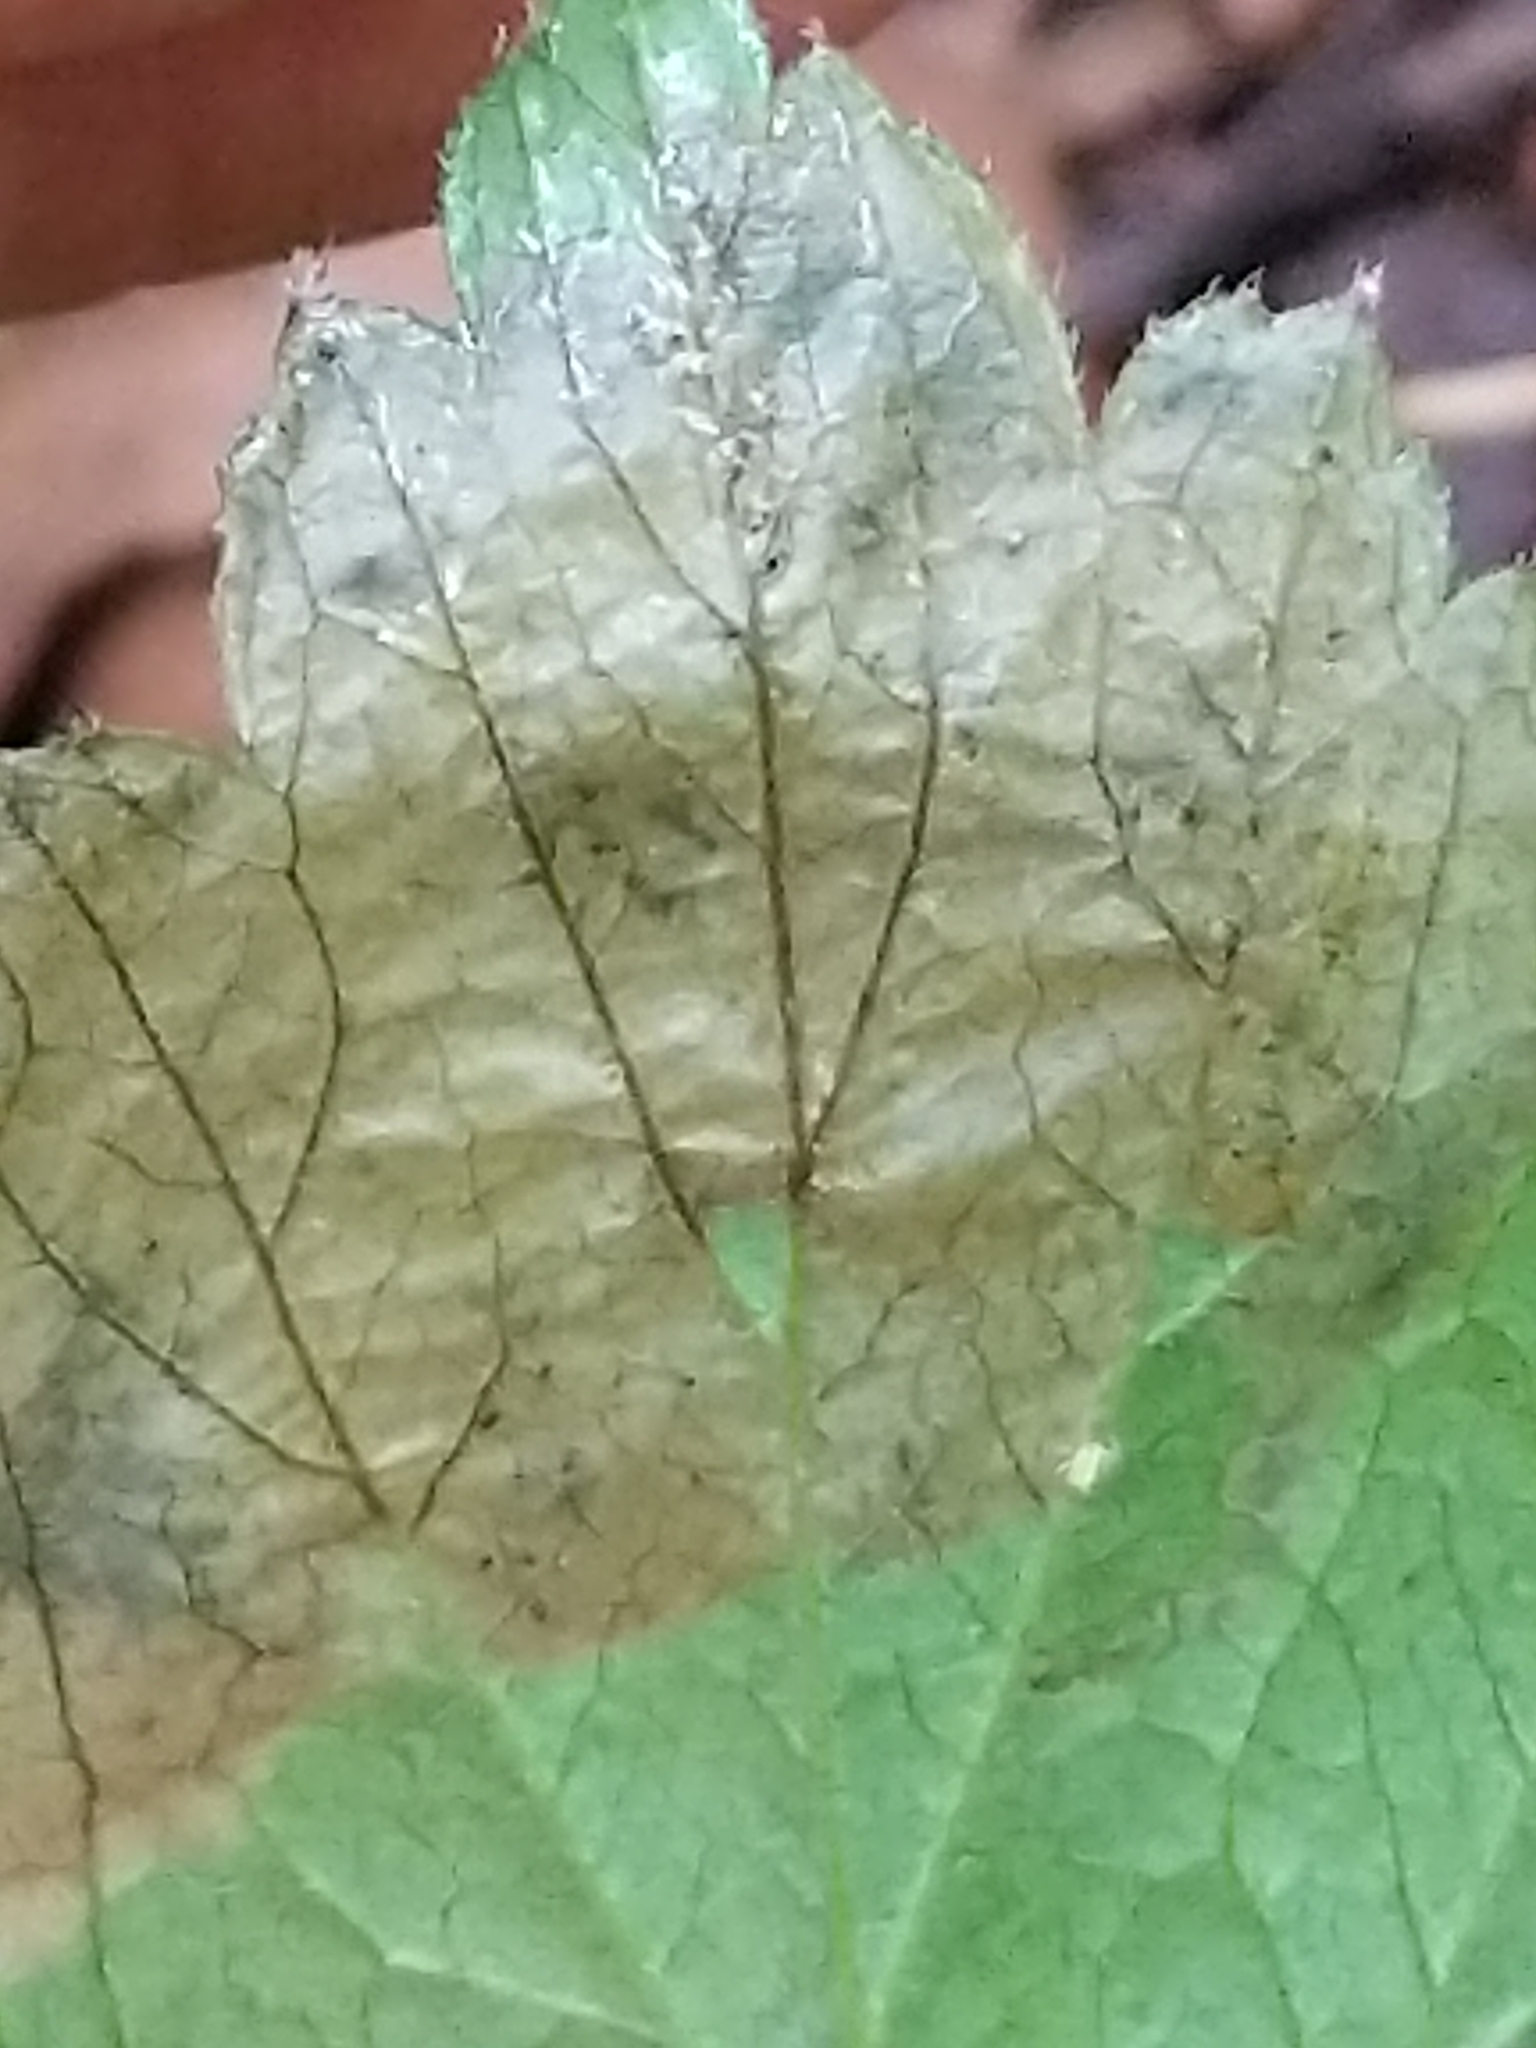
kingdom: Animalia
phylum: Arthropoda
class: Insecta
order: Hymenoptera
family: Tenthredinidae
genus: Metallus
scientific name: Metallus lanceolatus
